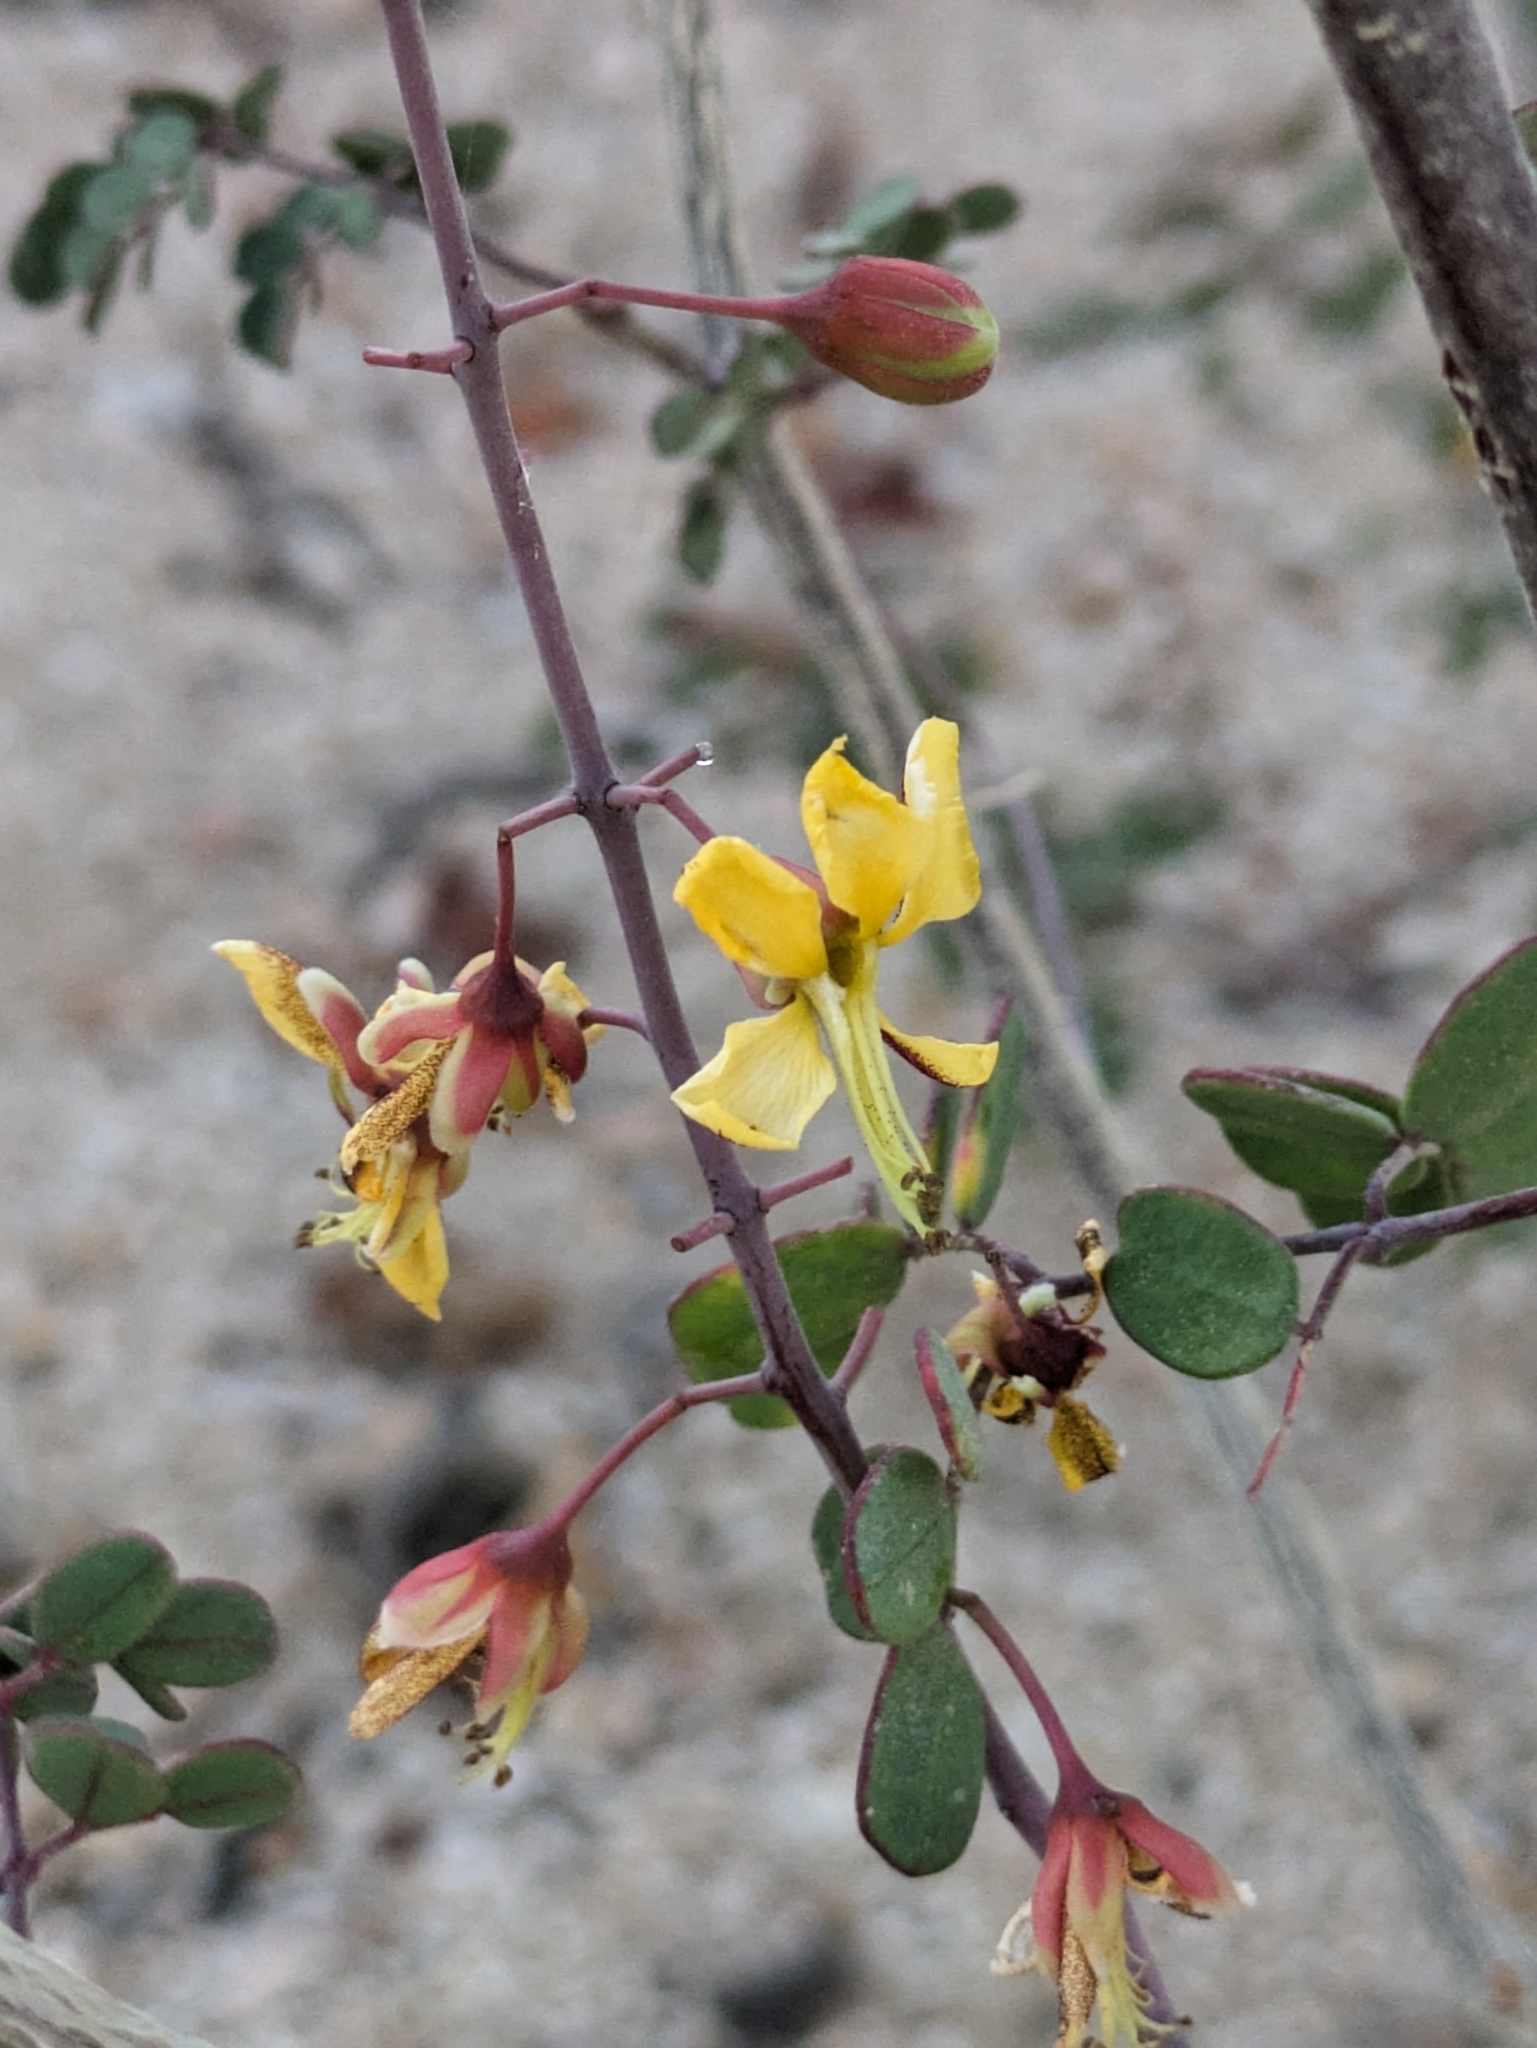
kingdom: Plantae
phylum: Tracheophyta
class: Magnoliopsida
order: Fabales
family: Fabaceae
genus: Erythrostemon
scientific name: Erythrostemon pannosus
